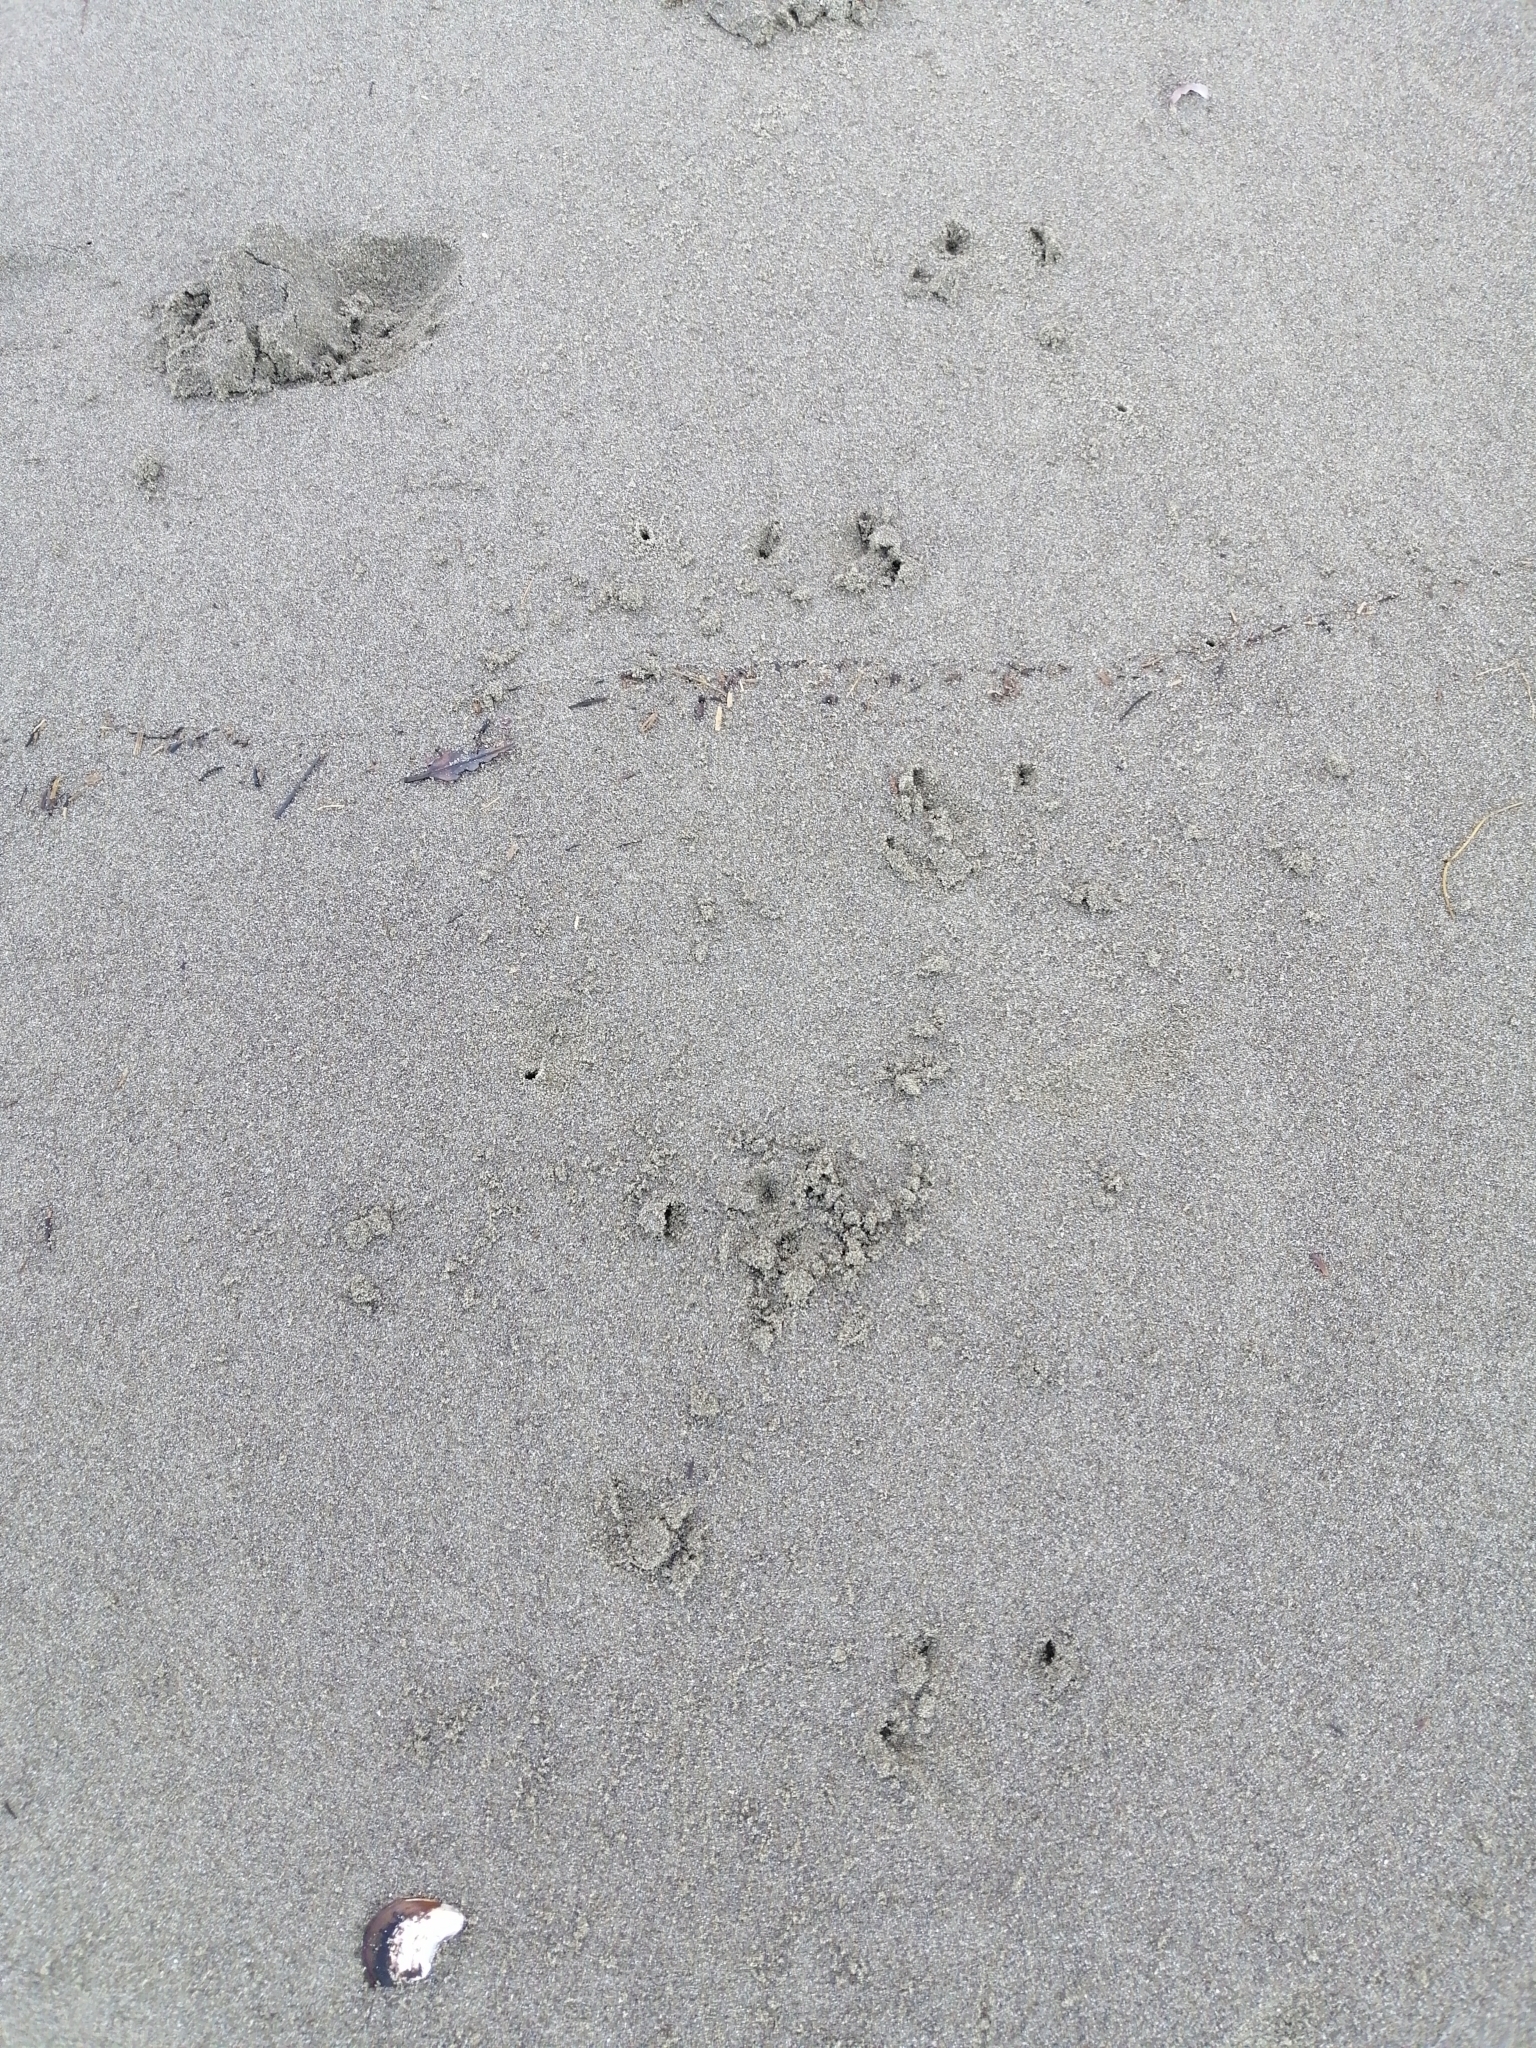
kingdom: Animalia
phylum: Chordata
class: Aves
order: Sphenisciformes
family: Spheniscidae
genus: Eudyptula
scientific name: Eudyptula minor
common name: Little penguin
